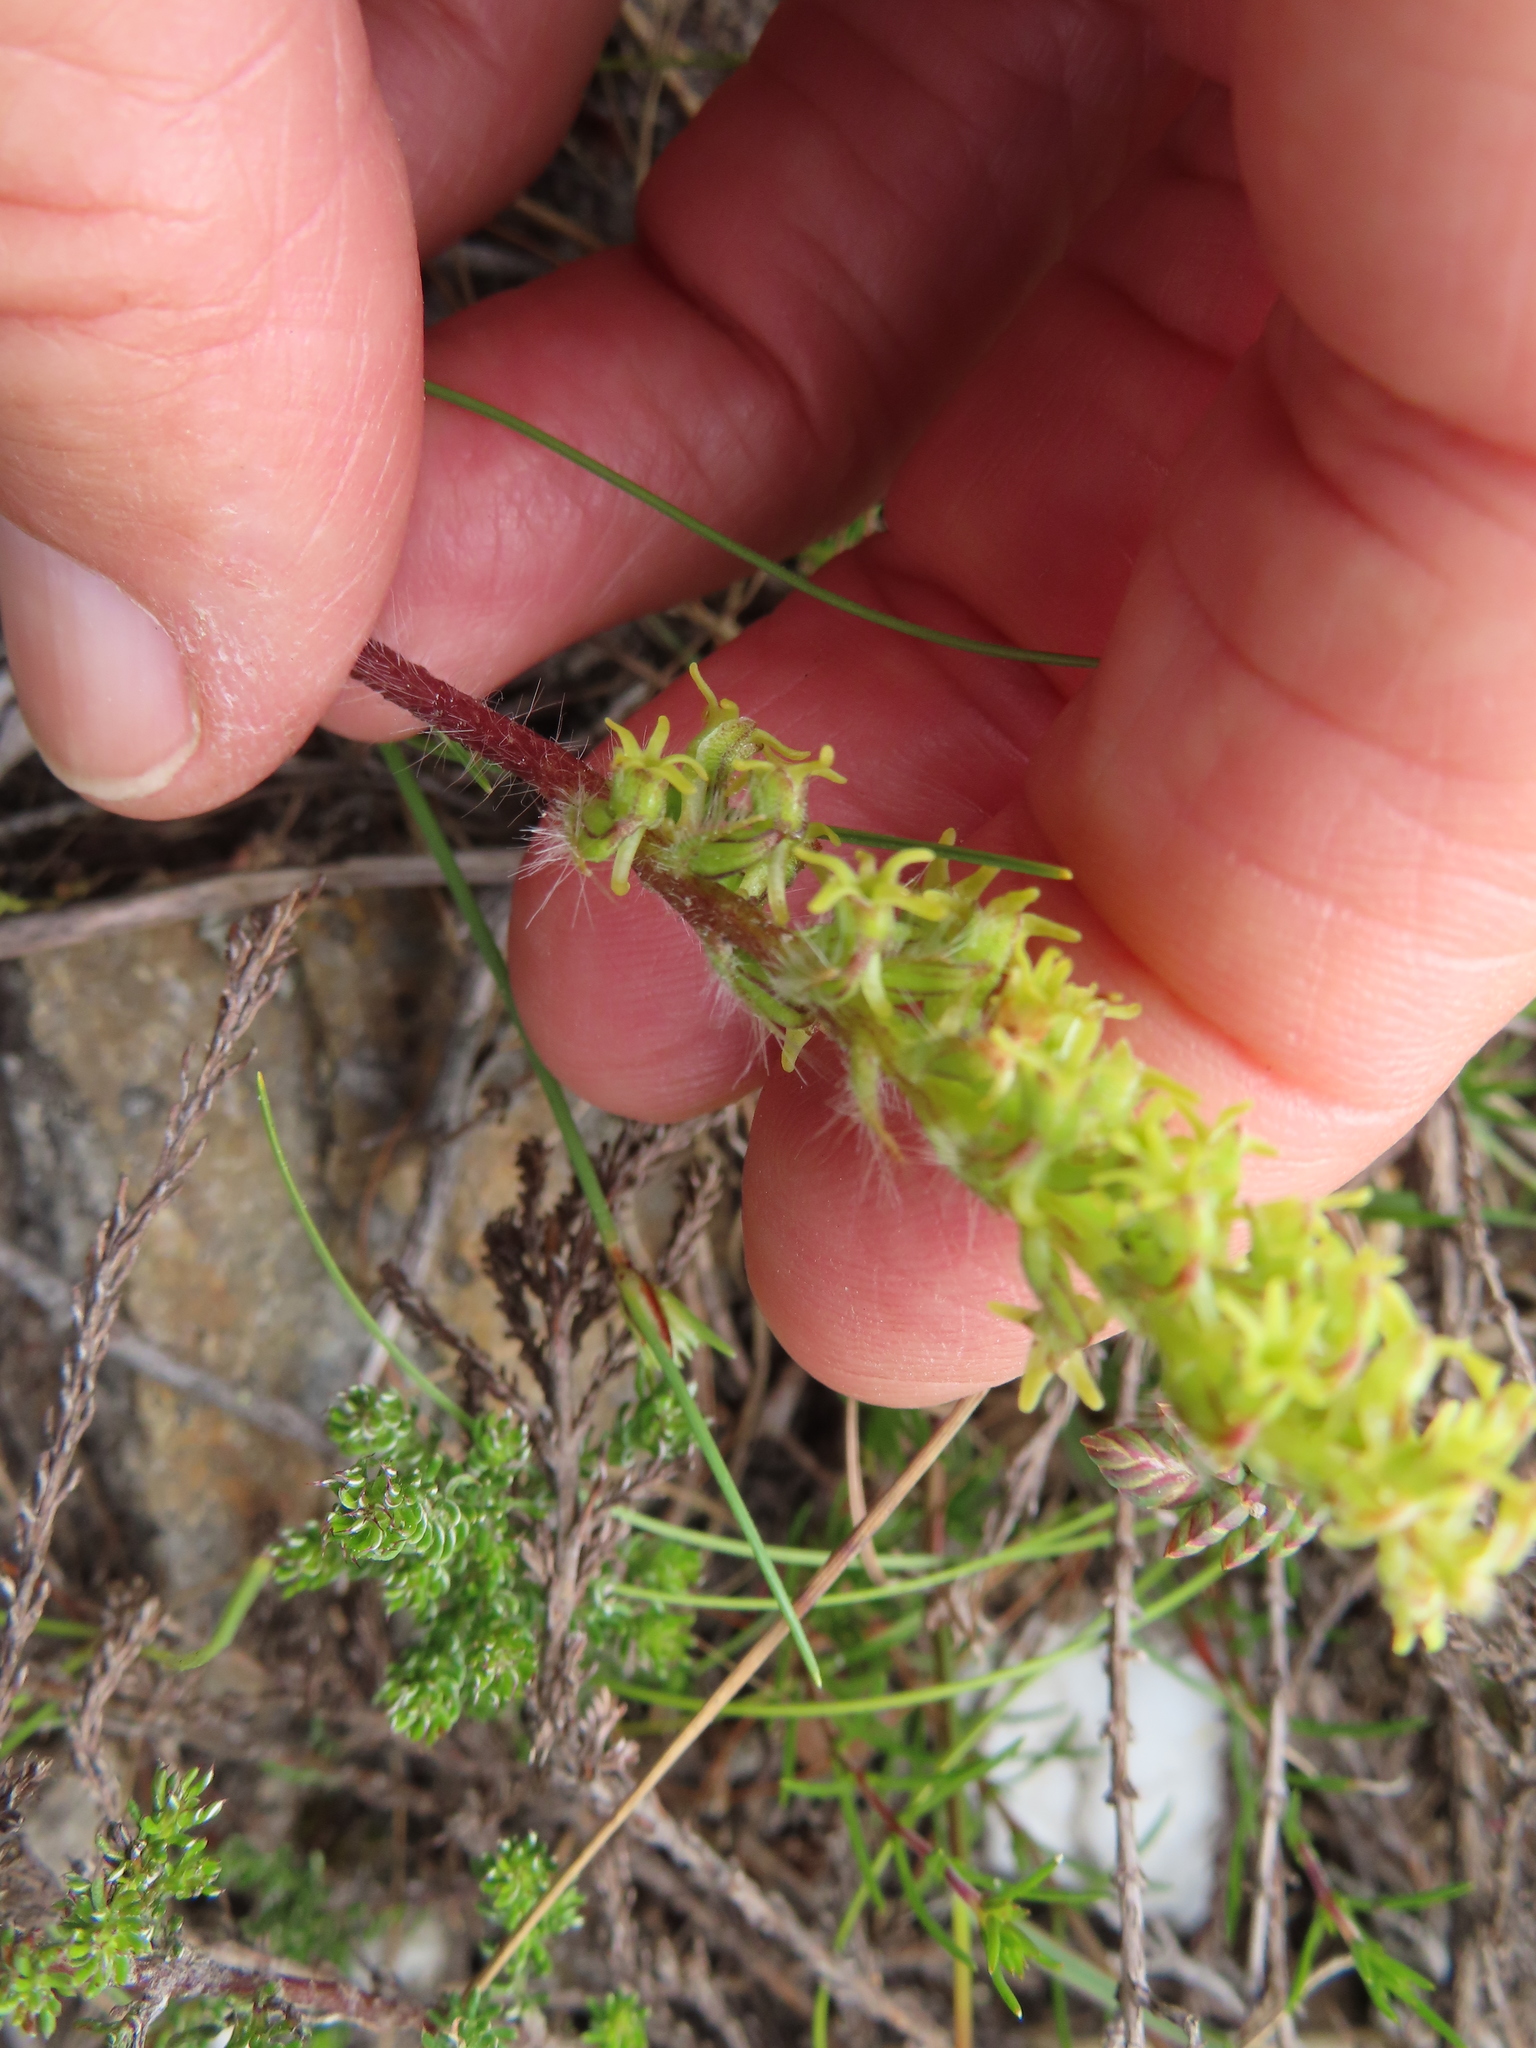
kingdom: Plantae
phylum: Tracheophyta
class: Liliopsida
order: Asparagales
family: Orchidaceae
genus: Holothrix
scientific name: Holothrix villosa
